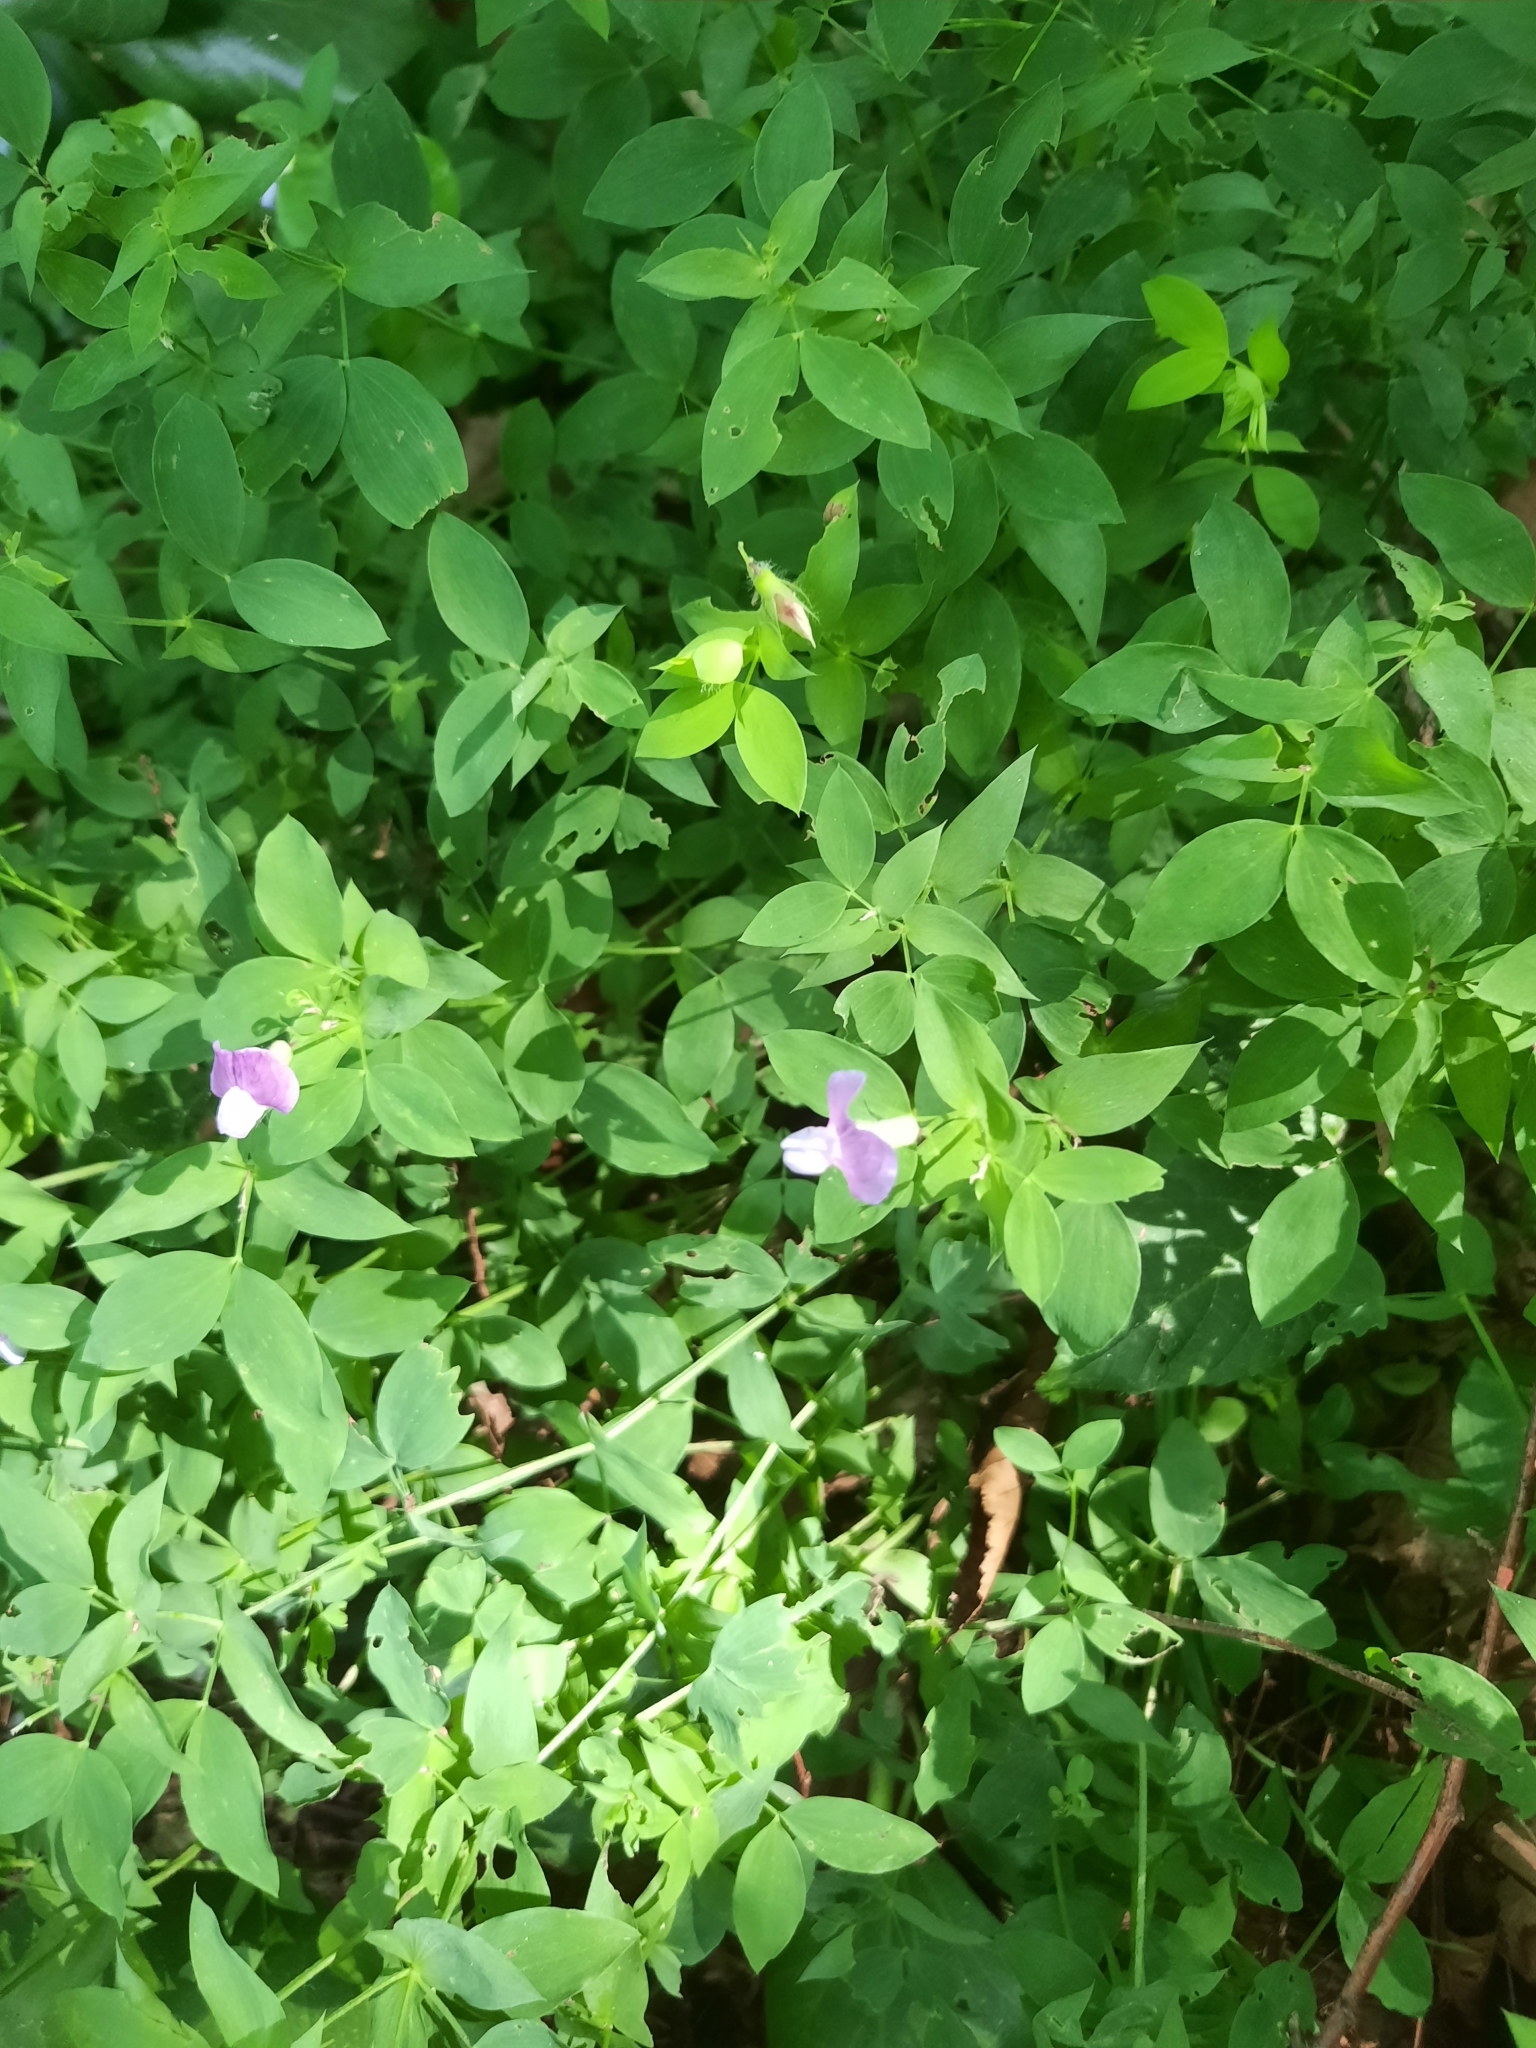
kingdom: Plantae
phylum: Tracheophyta
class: Magnoliopsida
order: Fabales
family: Fabaceae
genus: Lathyrus
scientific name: Lathyrus laxiflorus
